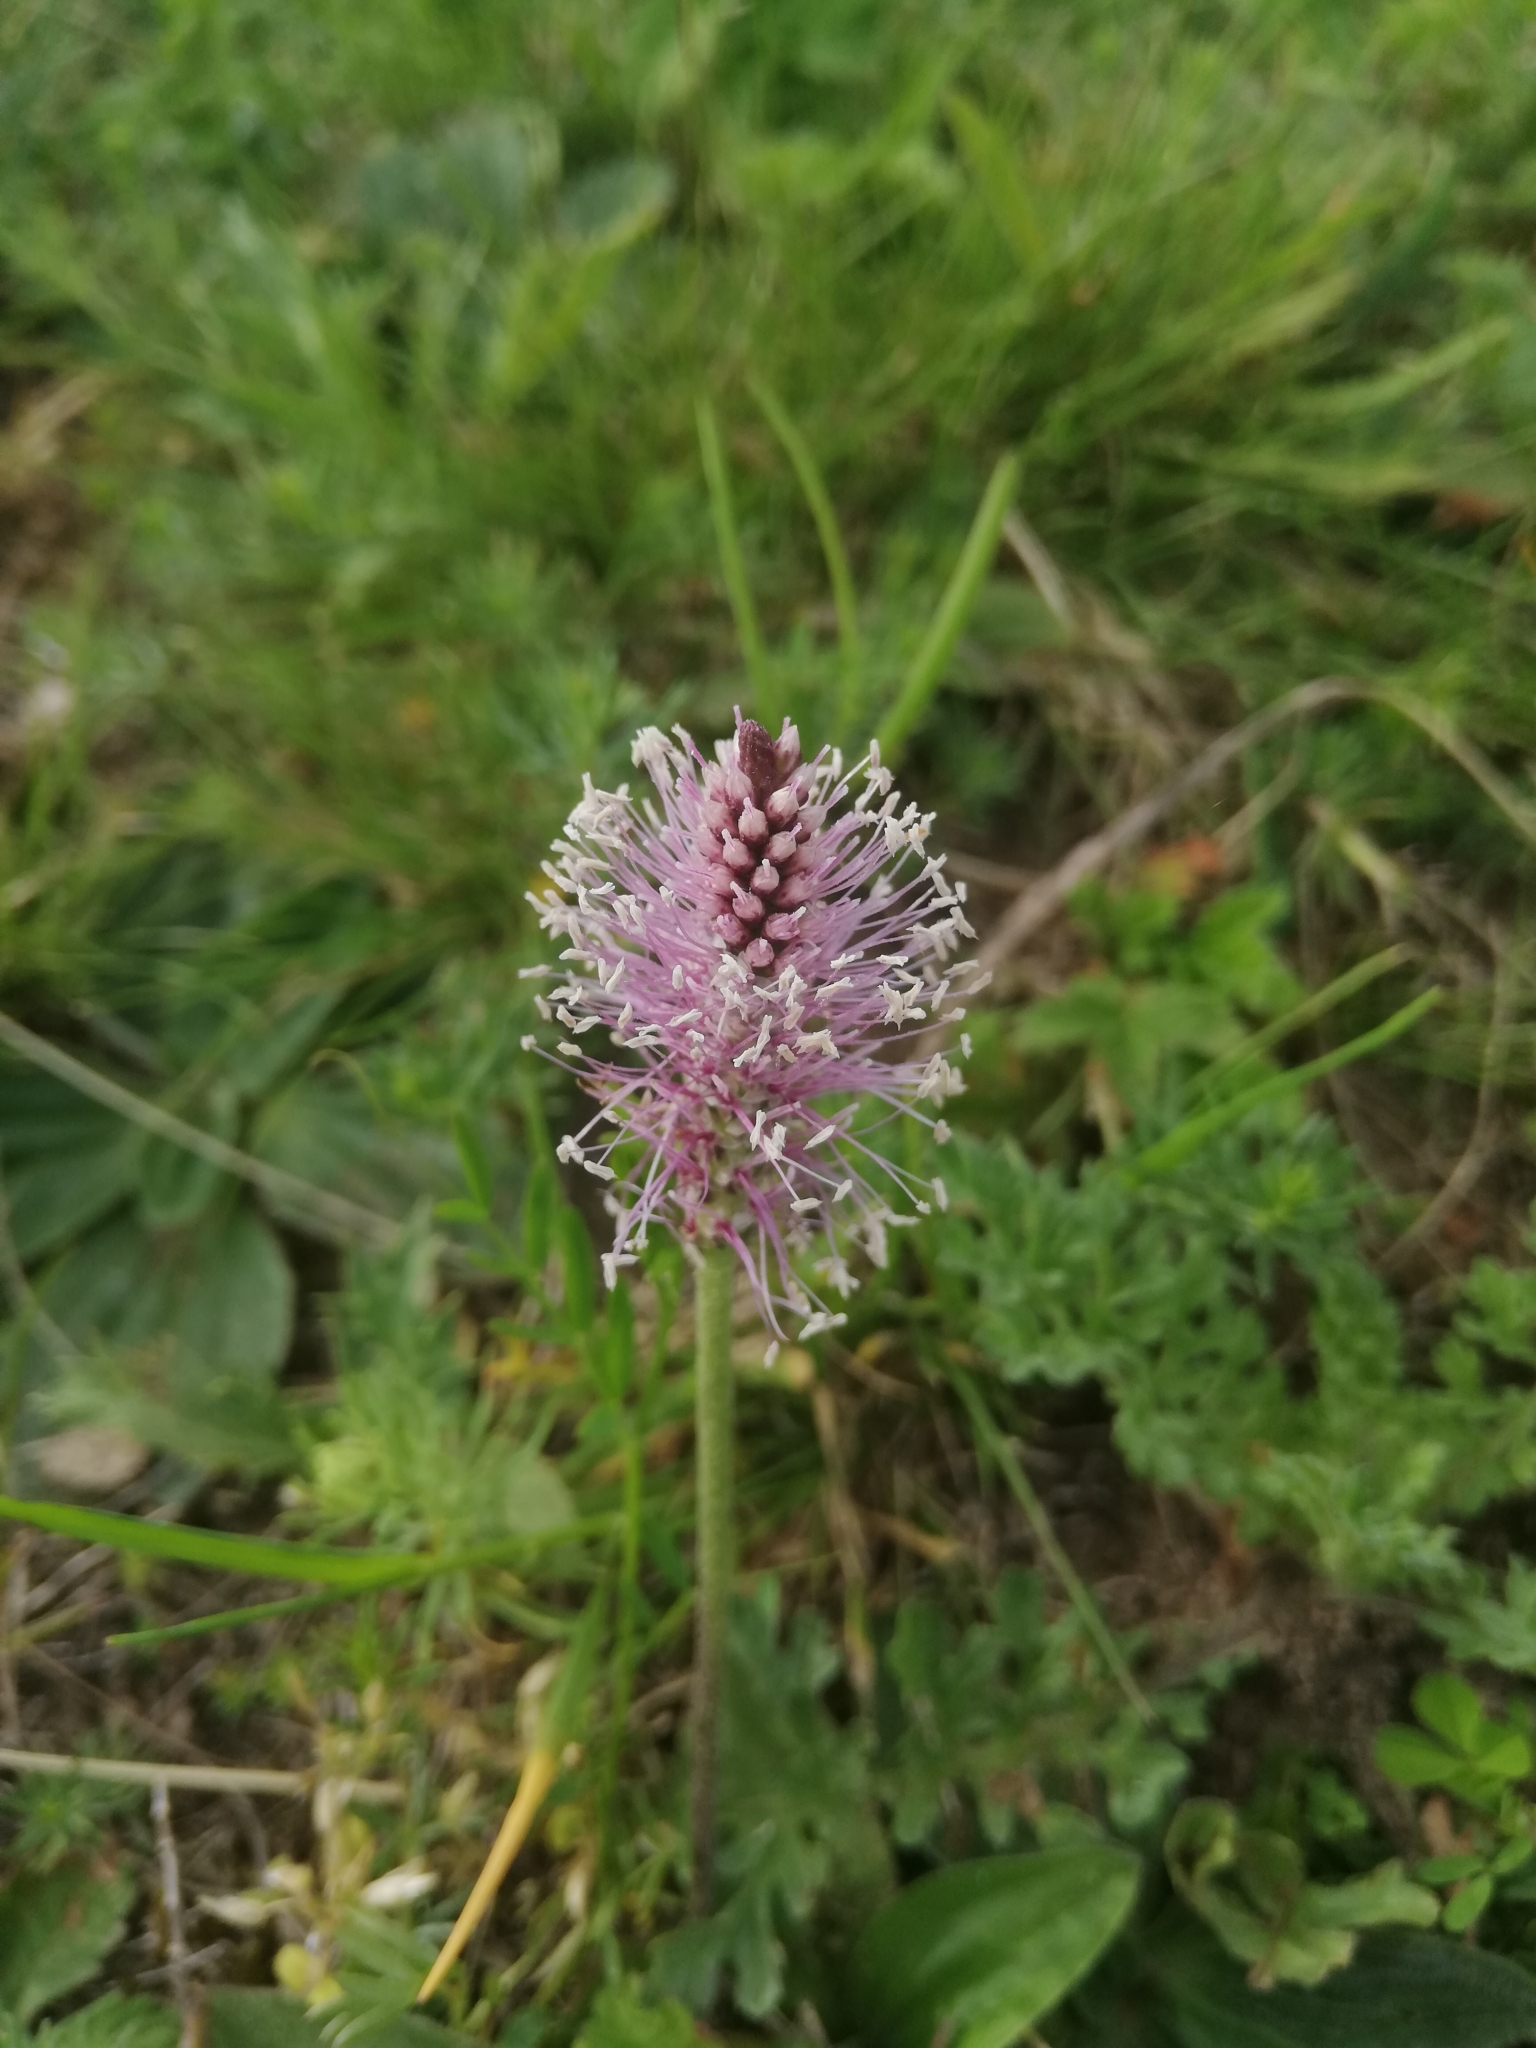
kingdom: Plantae
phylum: Tracheophyta
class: Magnoliopsida
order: Lamiales
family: Plantaginaceae
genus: Plantago
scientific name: Plantago media
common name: Hoary plantain
